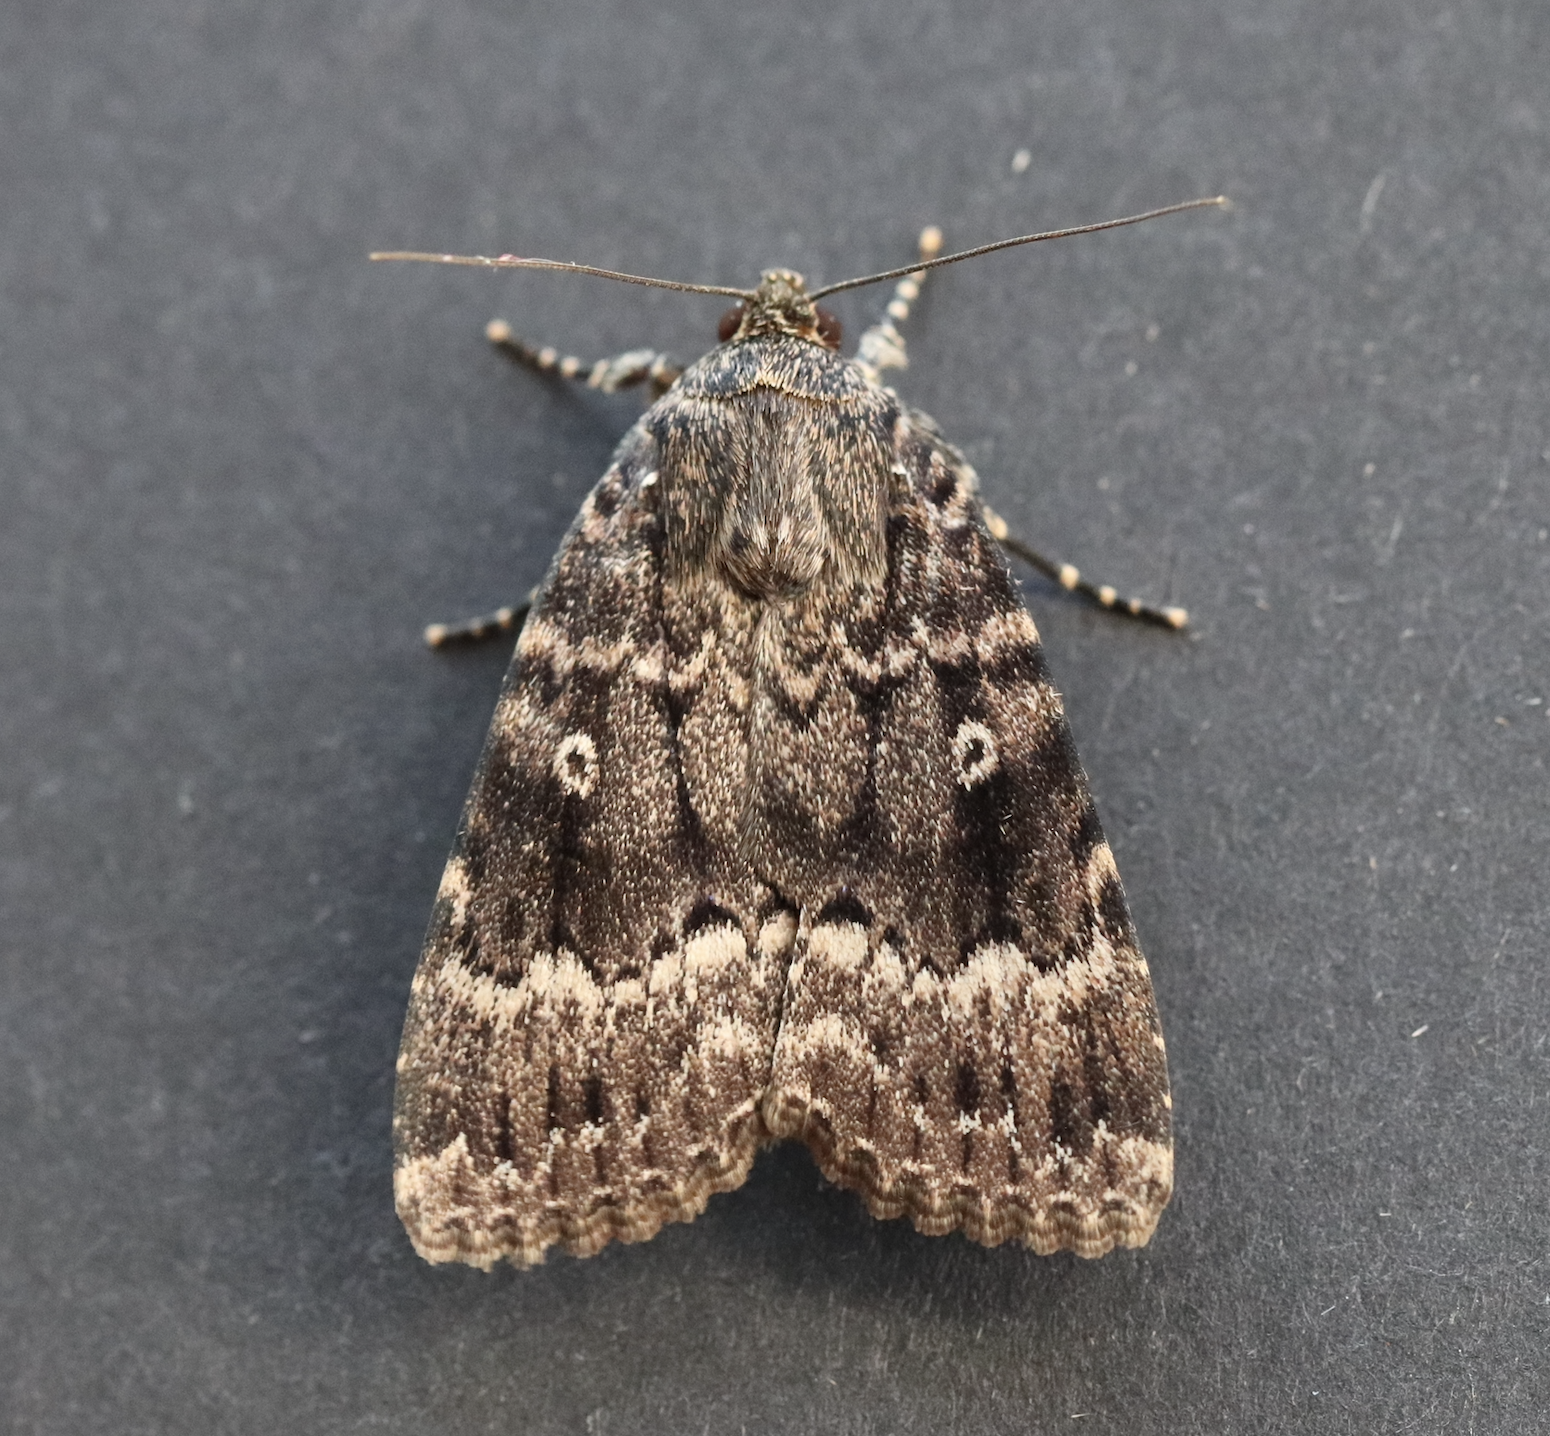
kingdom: Animalia
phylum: Arthropoda
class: Insecta
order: Lepidoptera
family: Noctuidae
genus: Amphipyra
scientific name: Amphipyra berbera
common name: Svensson's copper underwing
